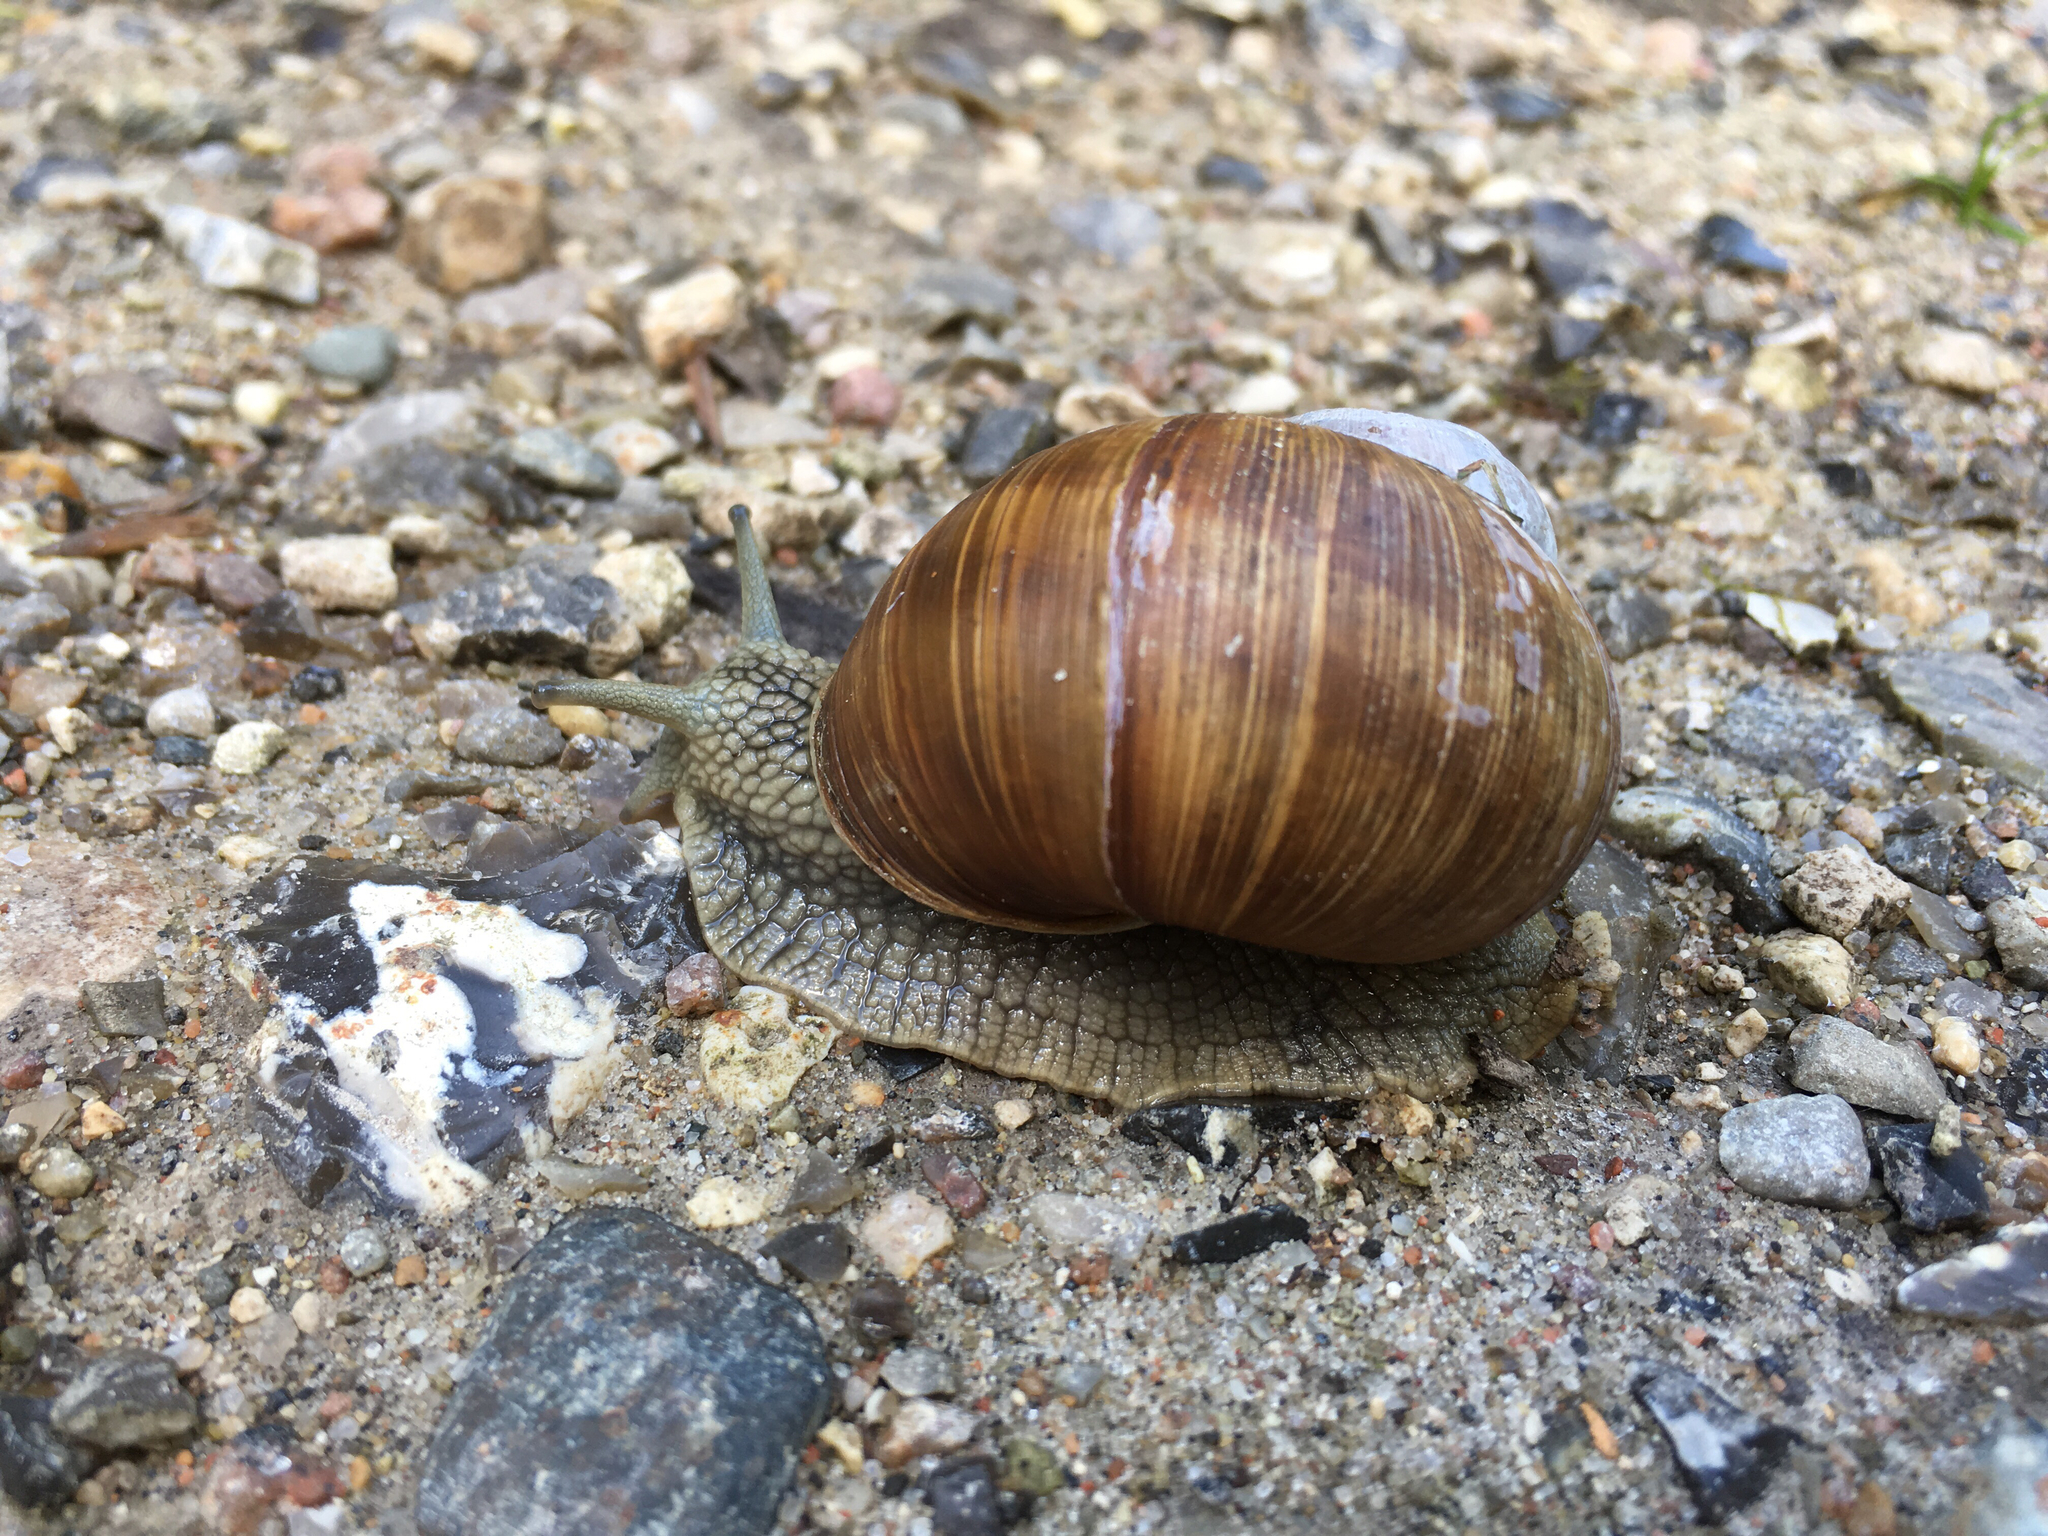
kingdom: Animalia
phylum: Mollusca
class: Gastropoda
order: Stylommatophora
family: Helicidae
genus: Helix
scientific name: Helix pomatia
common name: Roman snail
